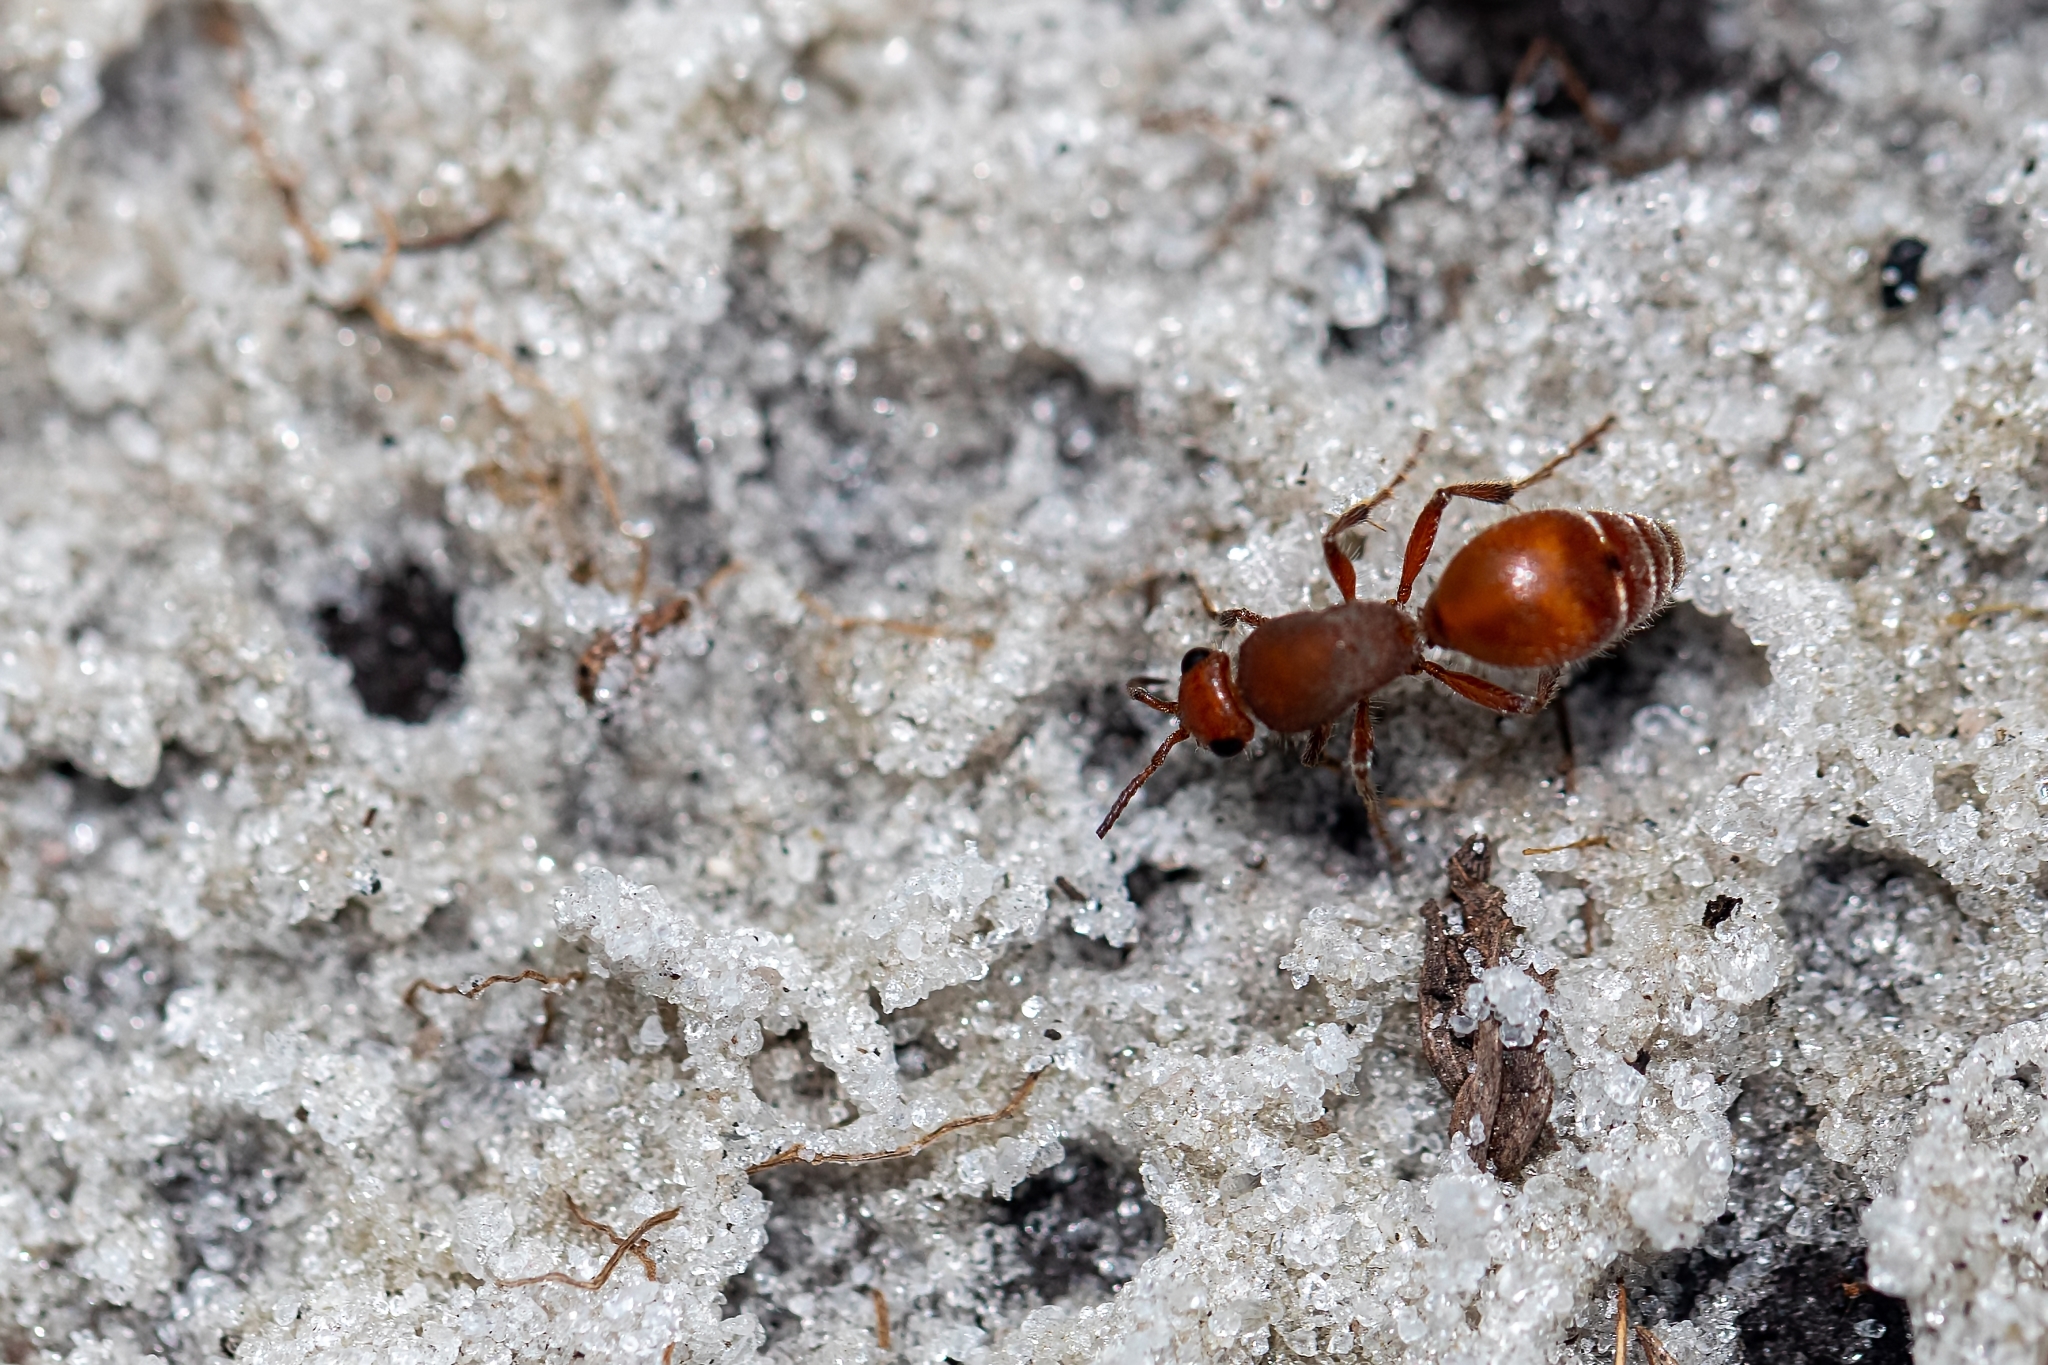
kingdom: Animalia
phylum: Arthropoda
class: Insecta
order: Hymenoptera
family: Mutillidae
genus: Dasymutilla
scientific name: Dasymutilla arenerronea
